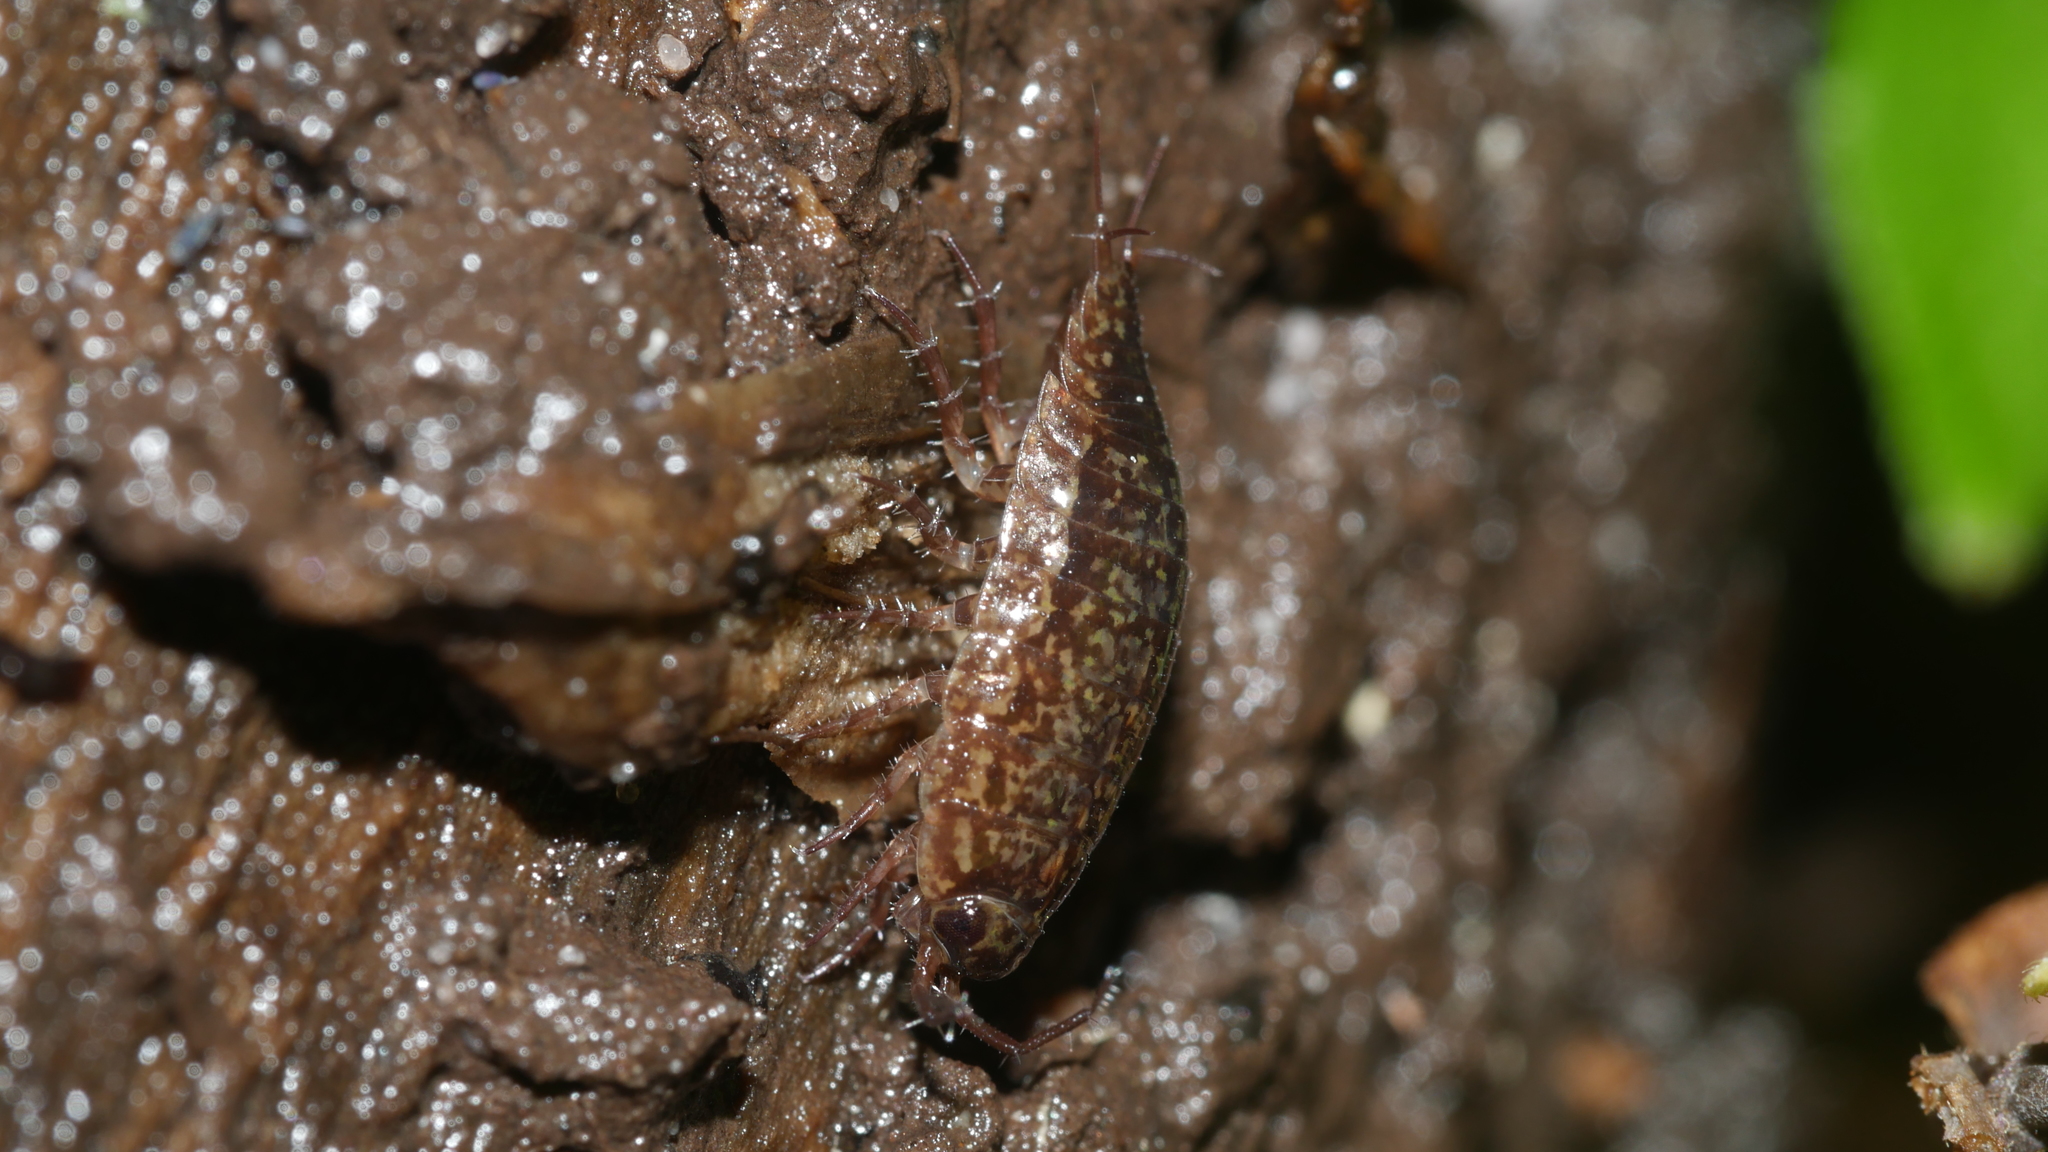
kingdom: Animalia
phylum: Arthropoda
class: Malacostraca
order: Isopoda
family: Ligiidae
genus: Ligidium
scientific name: Ligidium elrodii
